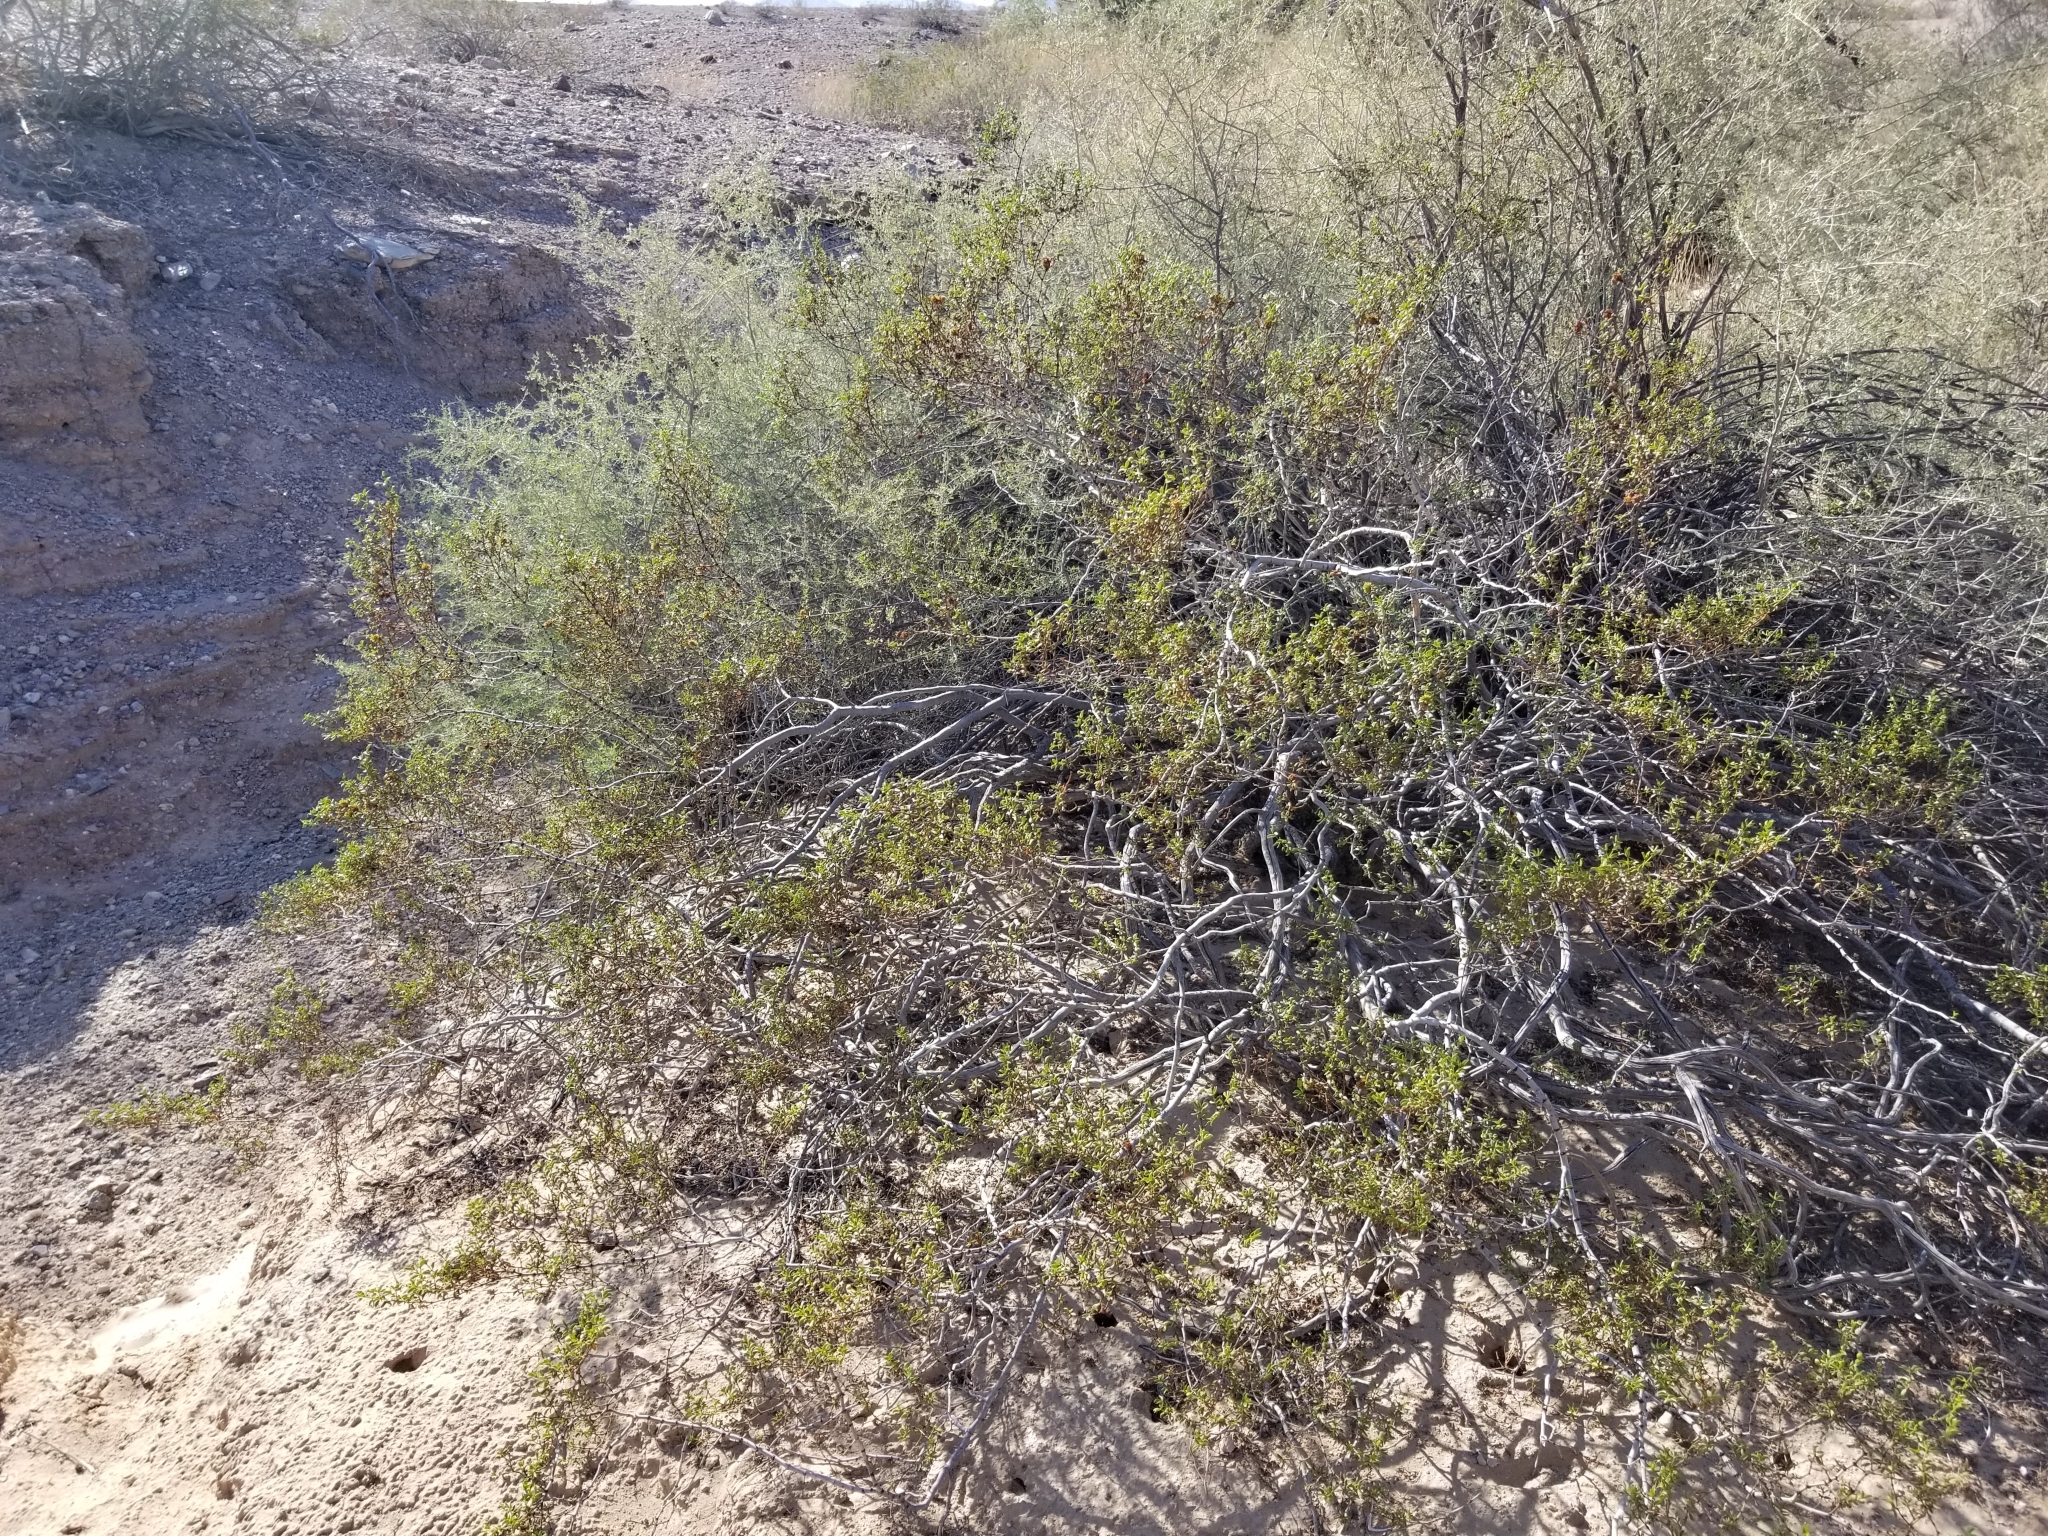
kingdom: Plantae
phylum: Tracheophyta
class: Magnoliopsida
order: Zygophyllales
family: Zygophyllaceae
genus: Larrea
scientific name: Larrea tridentata
